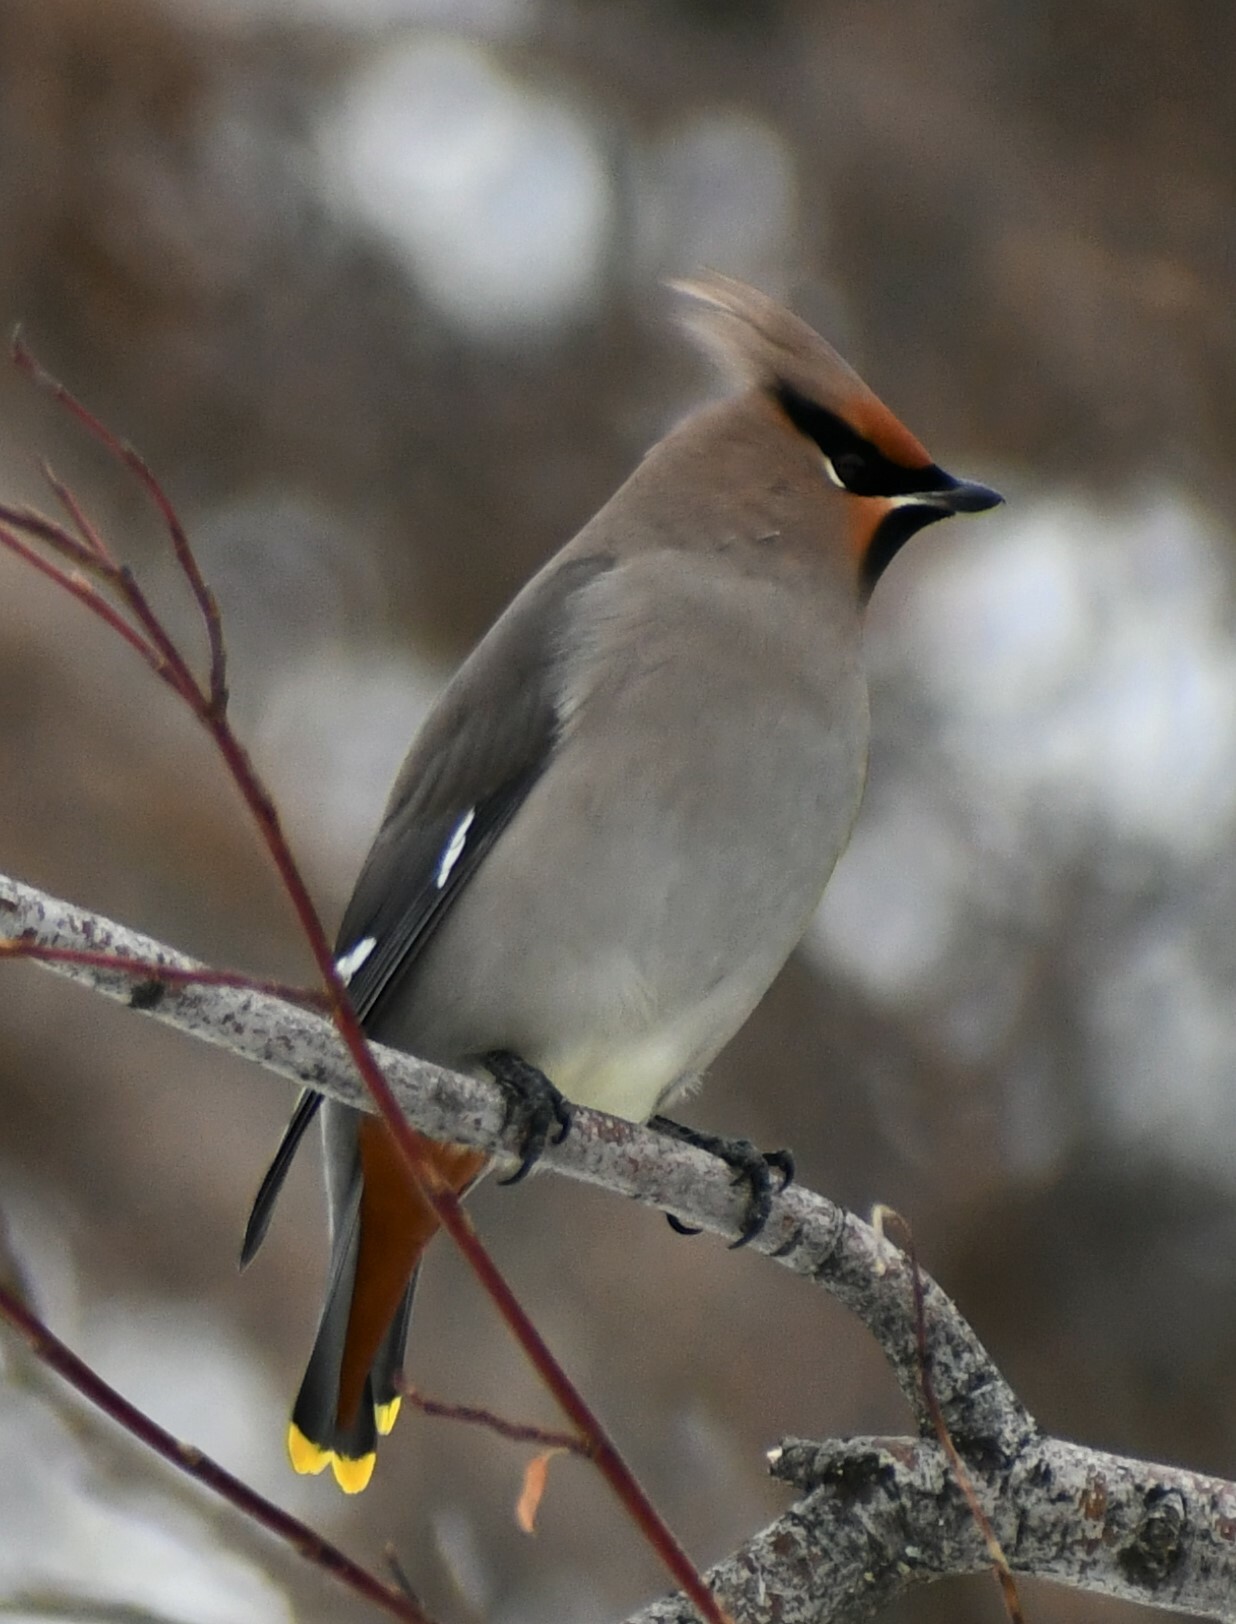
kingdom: Animalia
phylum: Chordata
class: Aves
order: Passeriformes
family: Bombycillidae
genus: Bombycilla
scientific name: Bombycilla garrulus
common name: Bohemian waxwing
